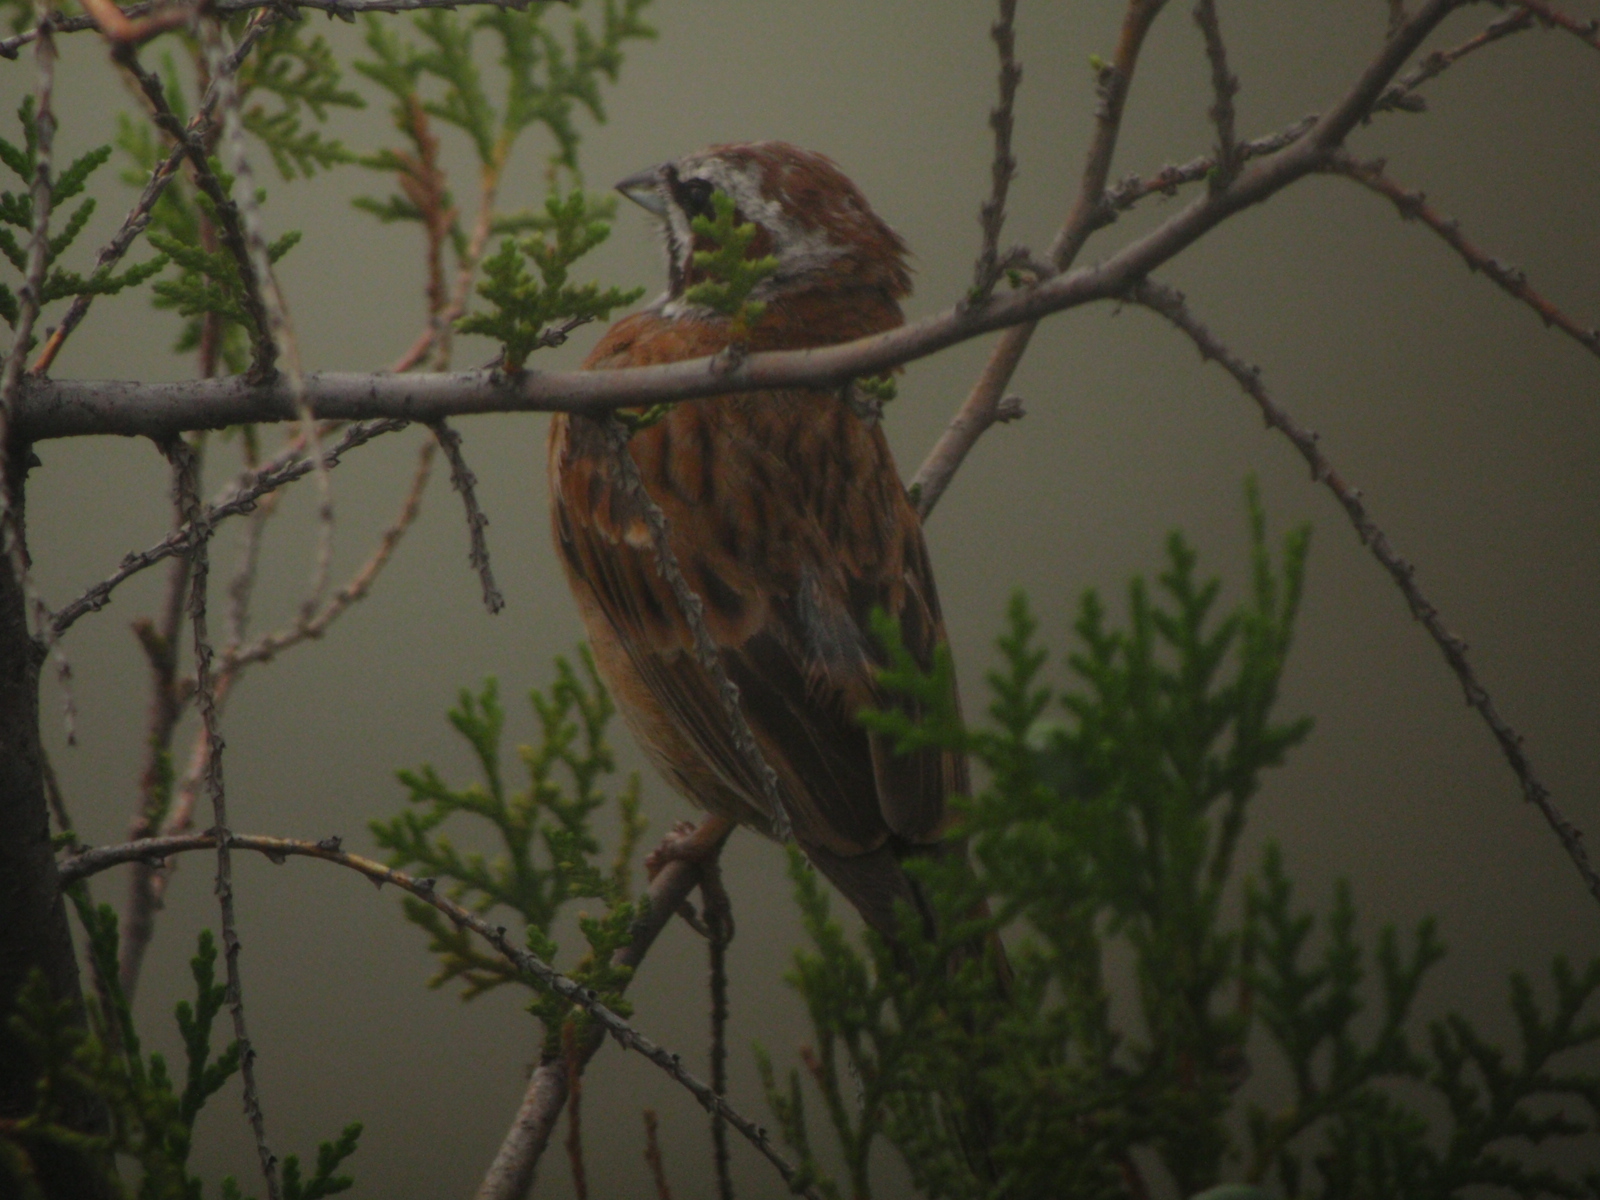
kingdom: Animalia
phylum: Chordata
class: Aves
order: Passeriformes
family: Emberizidae
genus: Emberiza
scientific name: Emberiza cioides
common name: Meadow bunting
